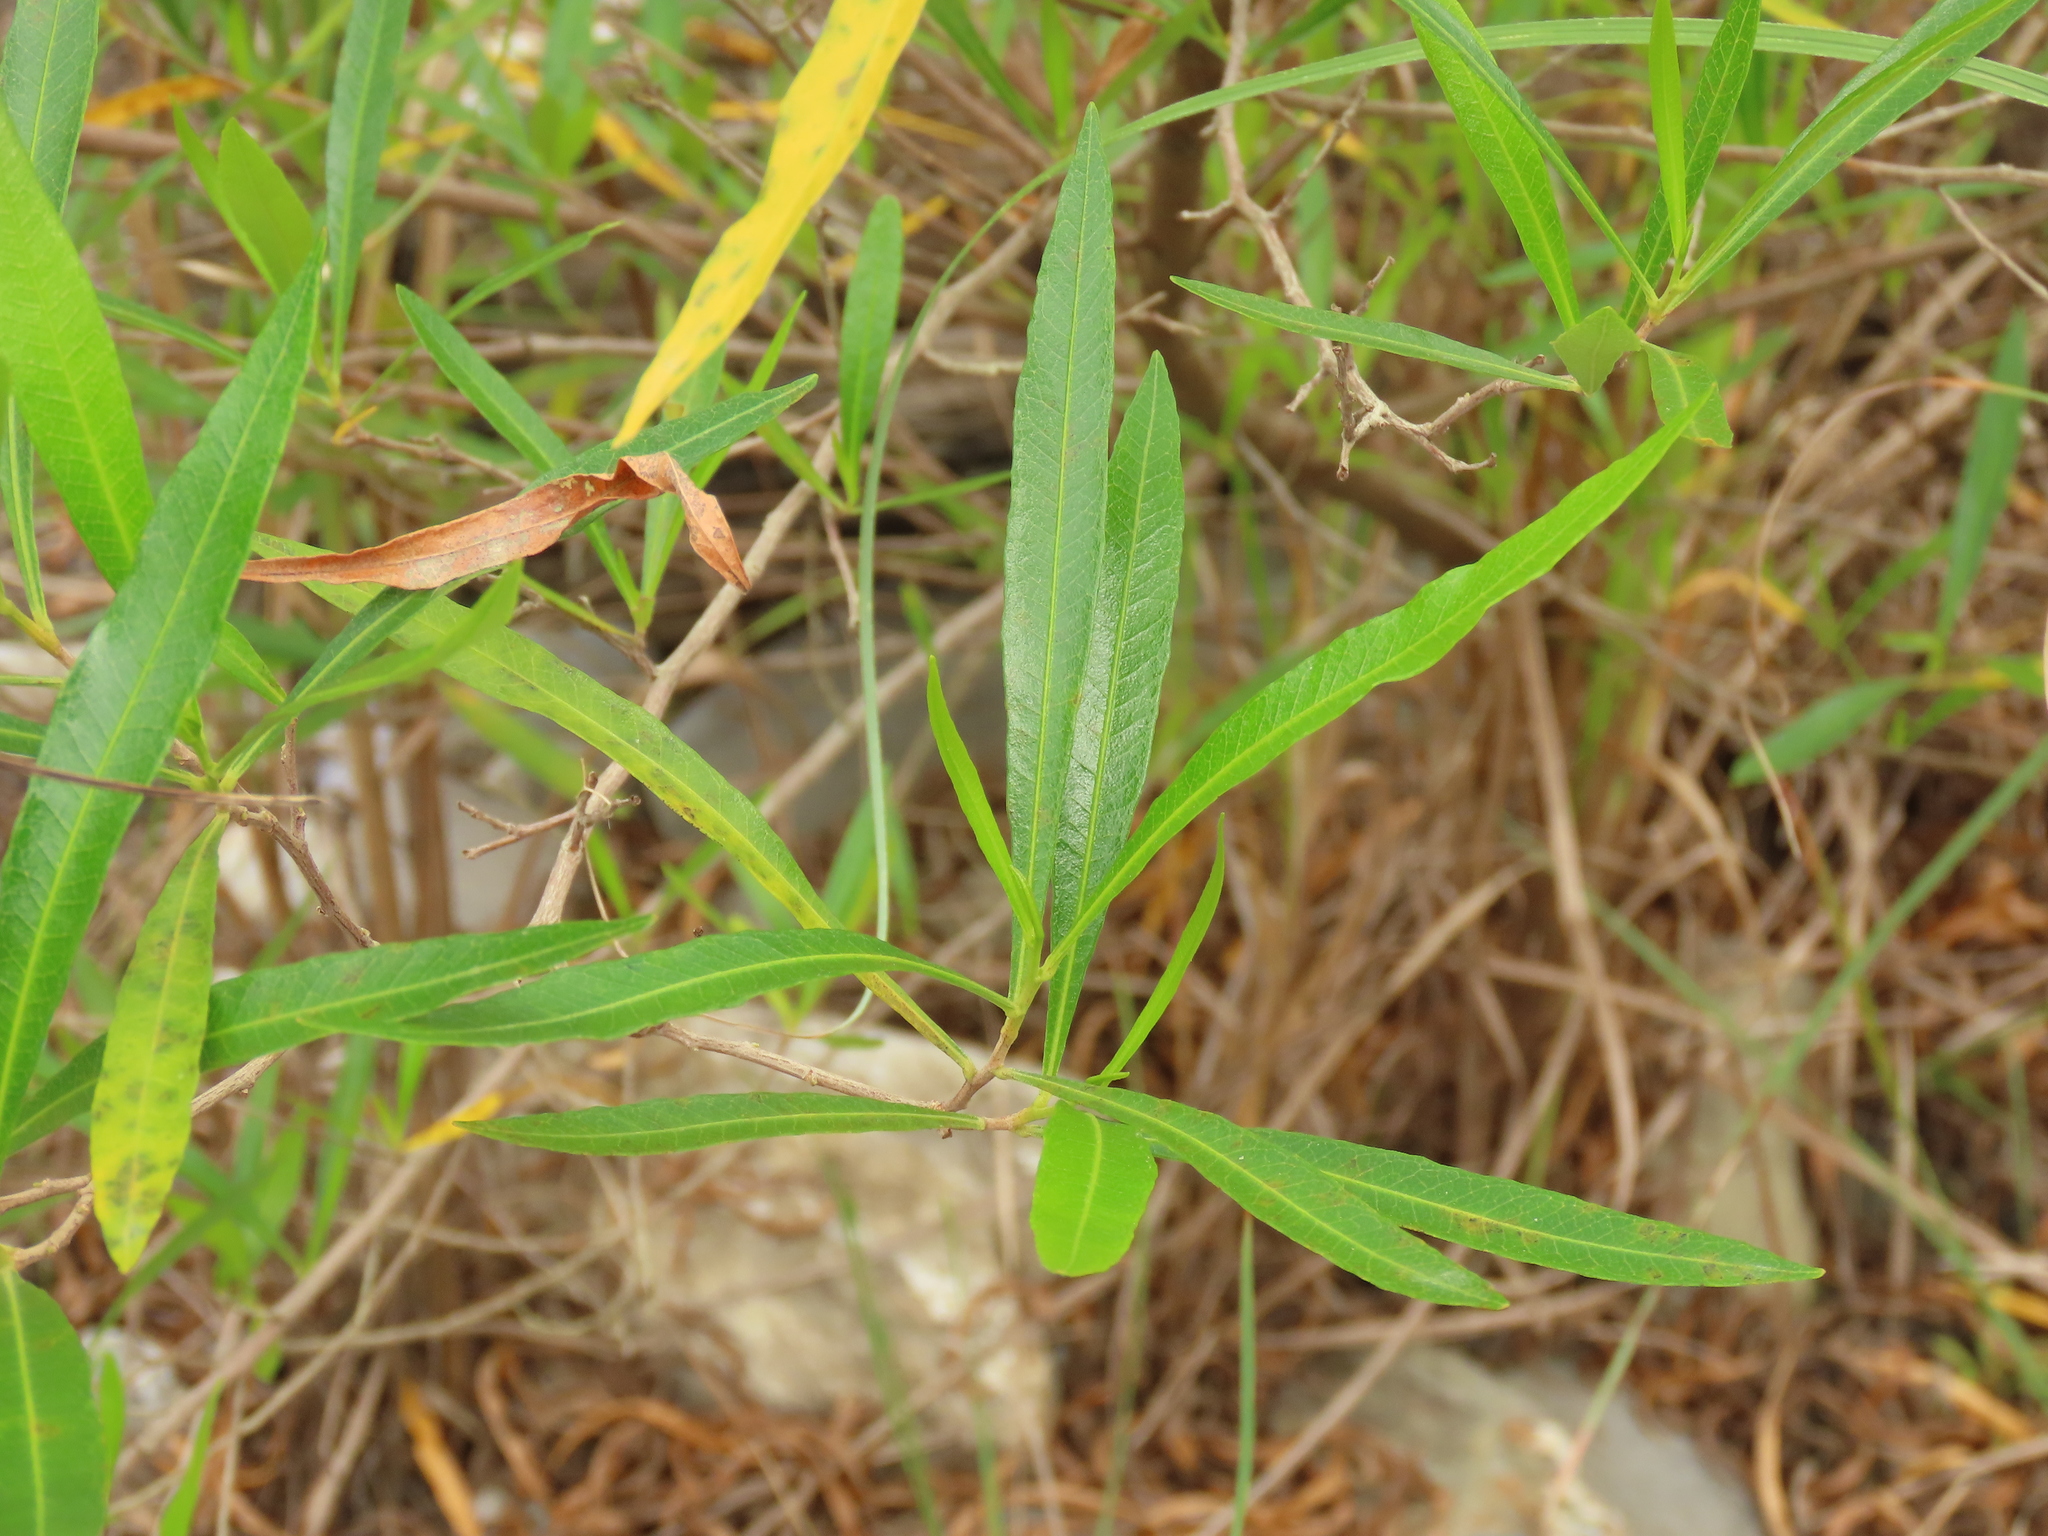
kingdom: Plantae
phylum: Tracheophyta
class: Magnoliopsida
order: Sapindales
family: Sapindaceae
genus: Dodonaea
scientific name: Dodonaea viscosa
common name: Hopbush
